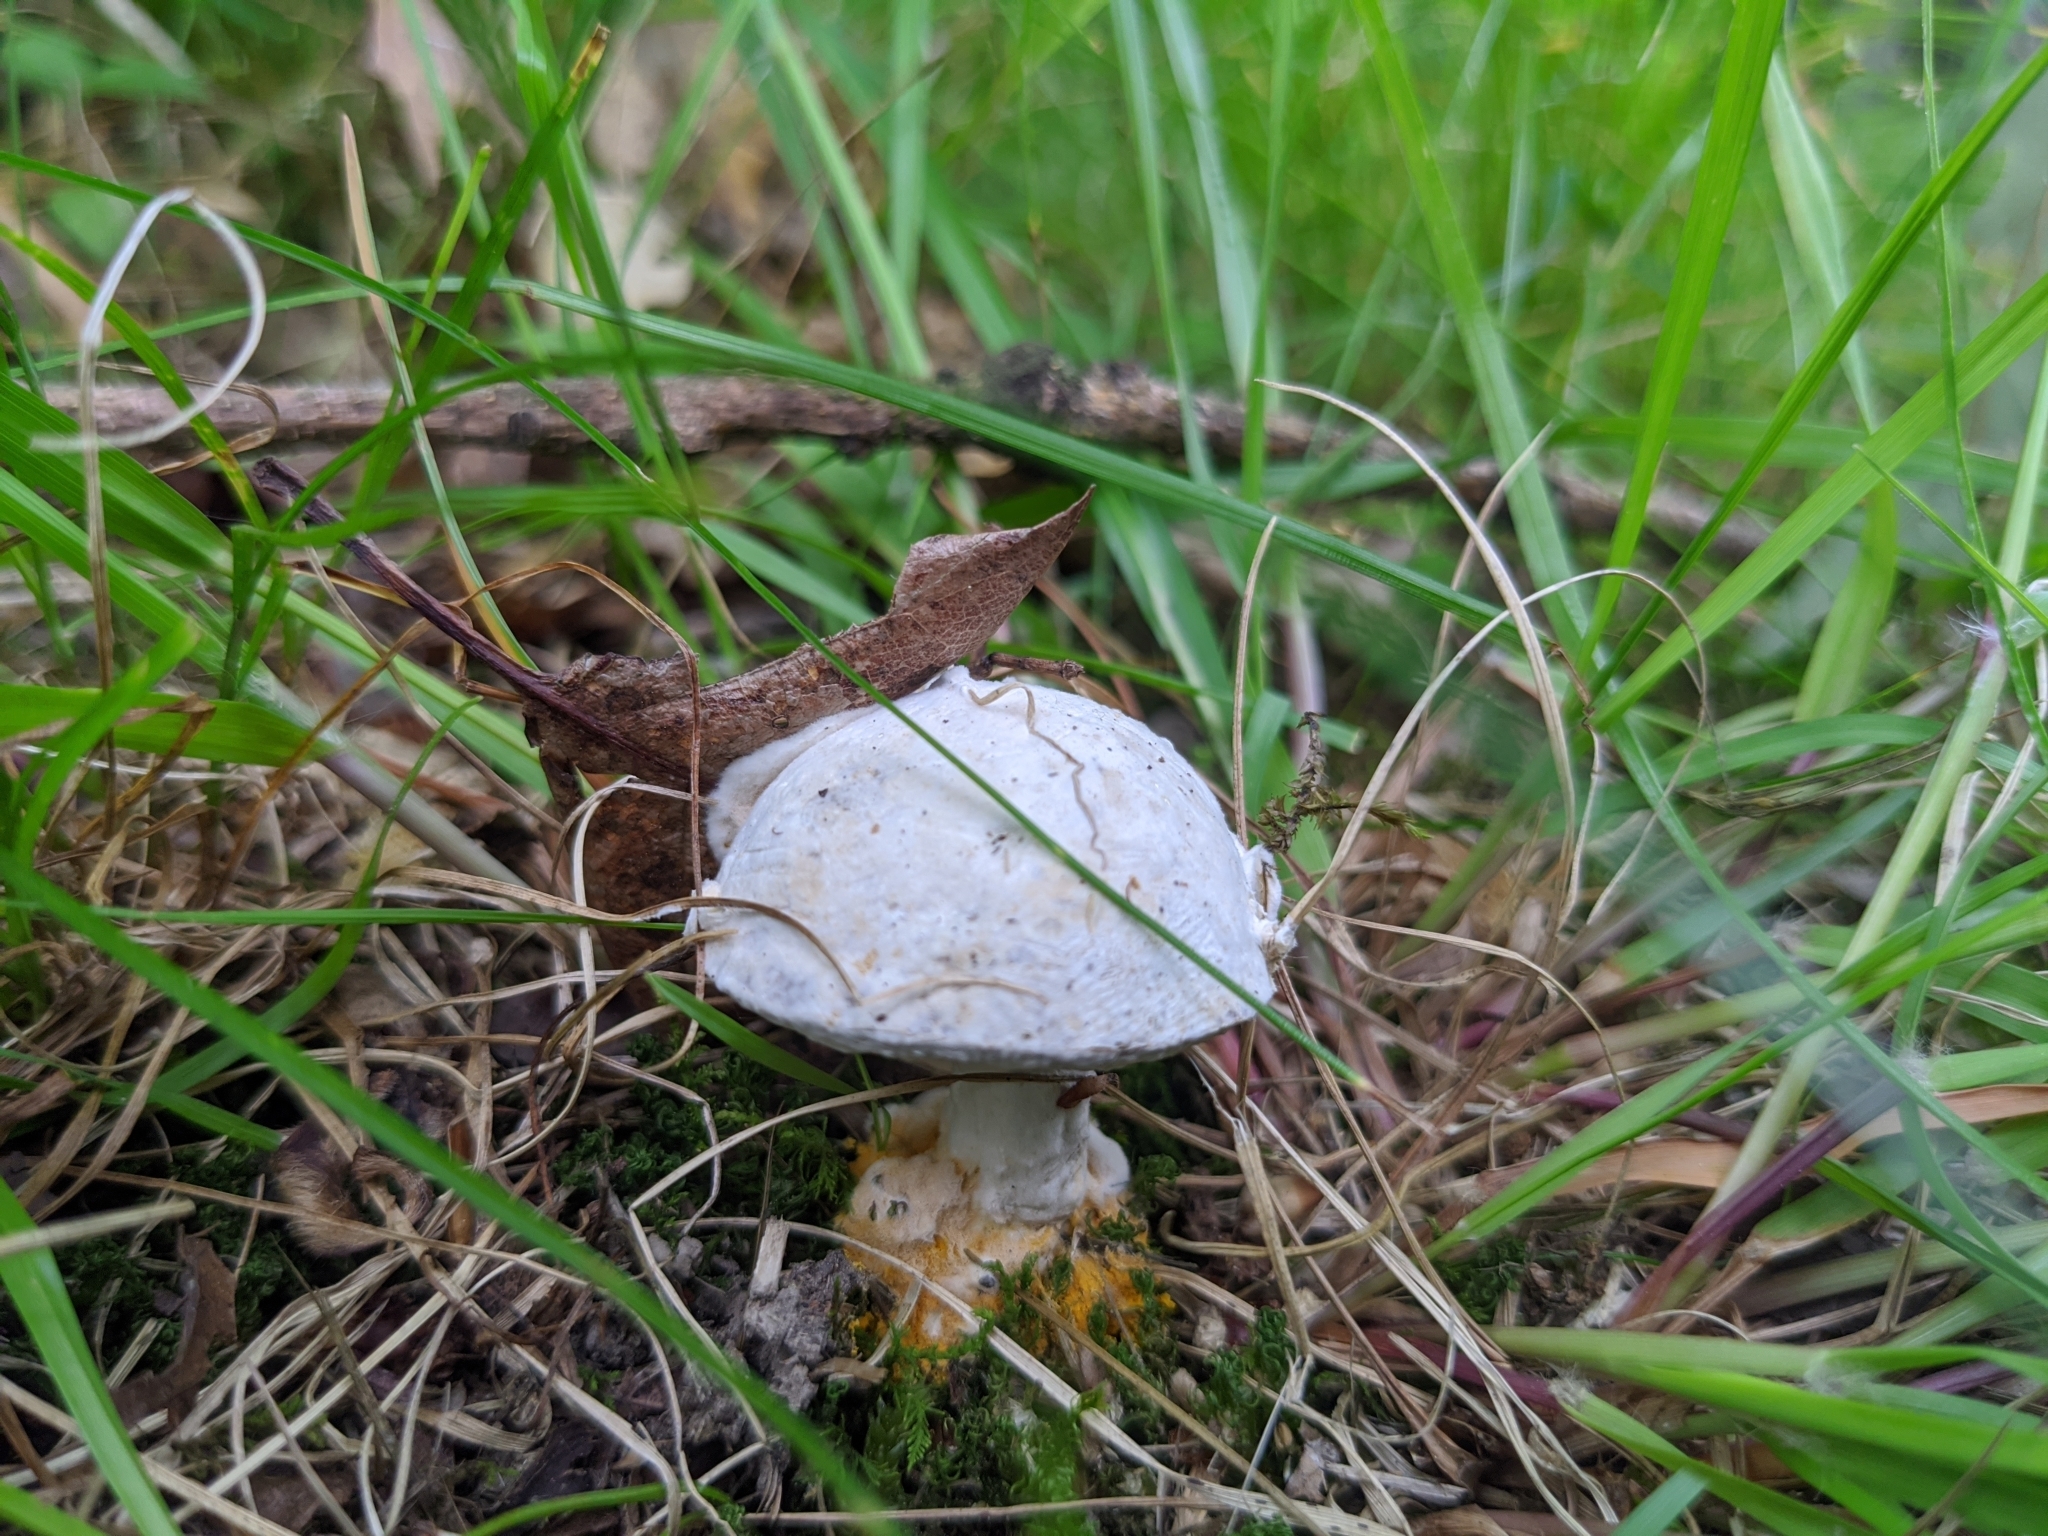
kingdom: Fungi
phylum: Ascomycota
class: Sordariomycetes
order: Hypocreales
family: Hypocreaceae
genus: Hypomyces
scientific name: Hypomyces chrysospermus
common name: Bolete mould
